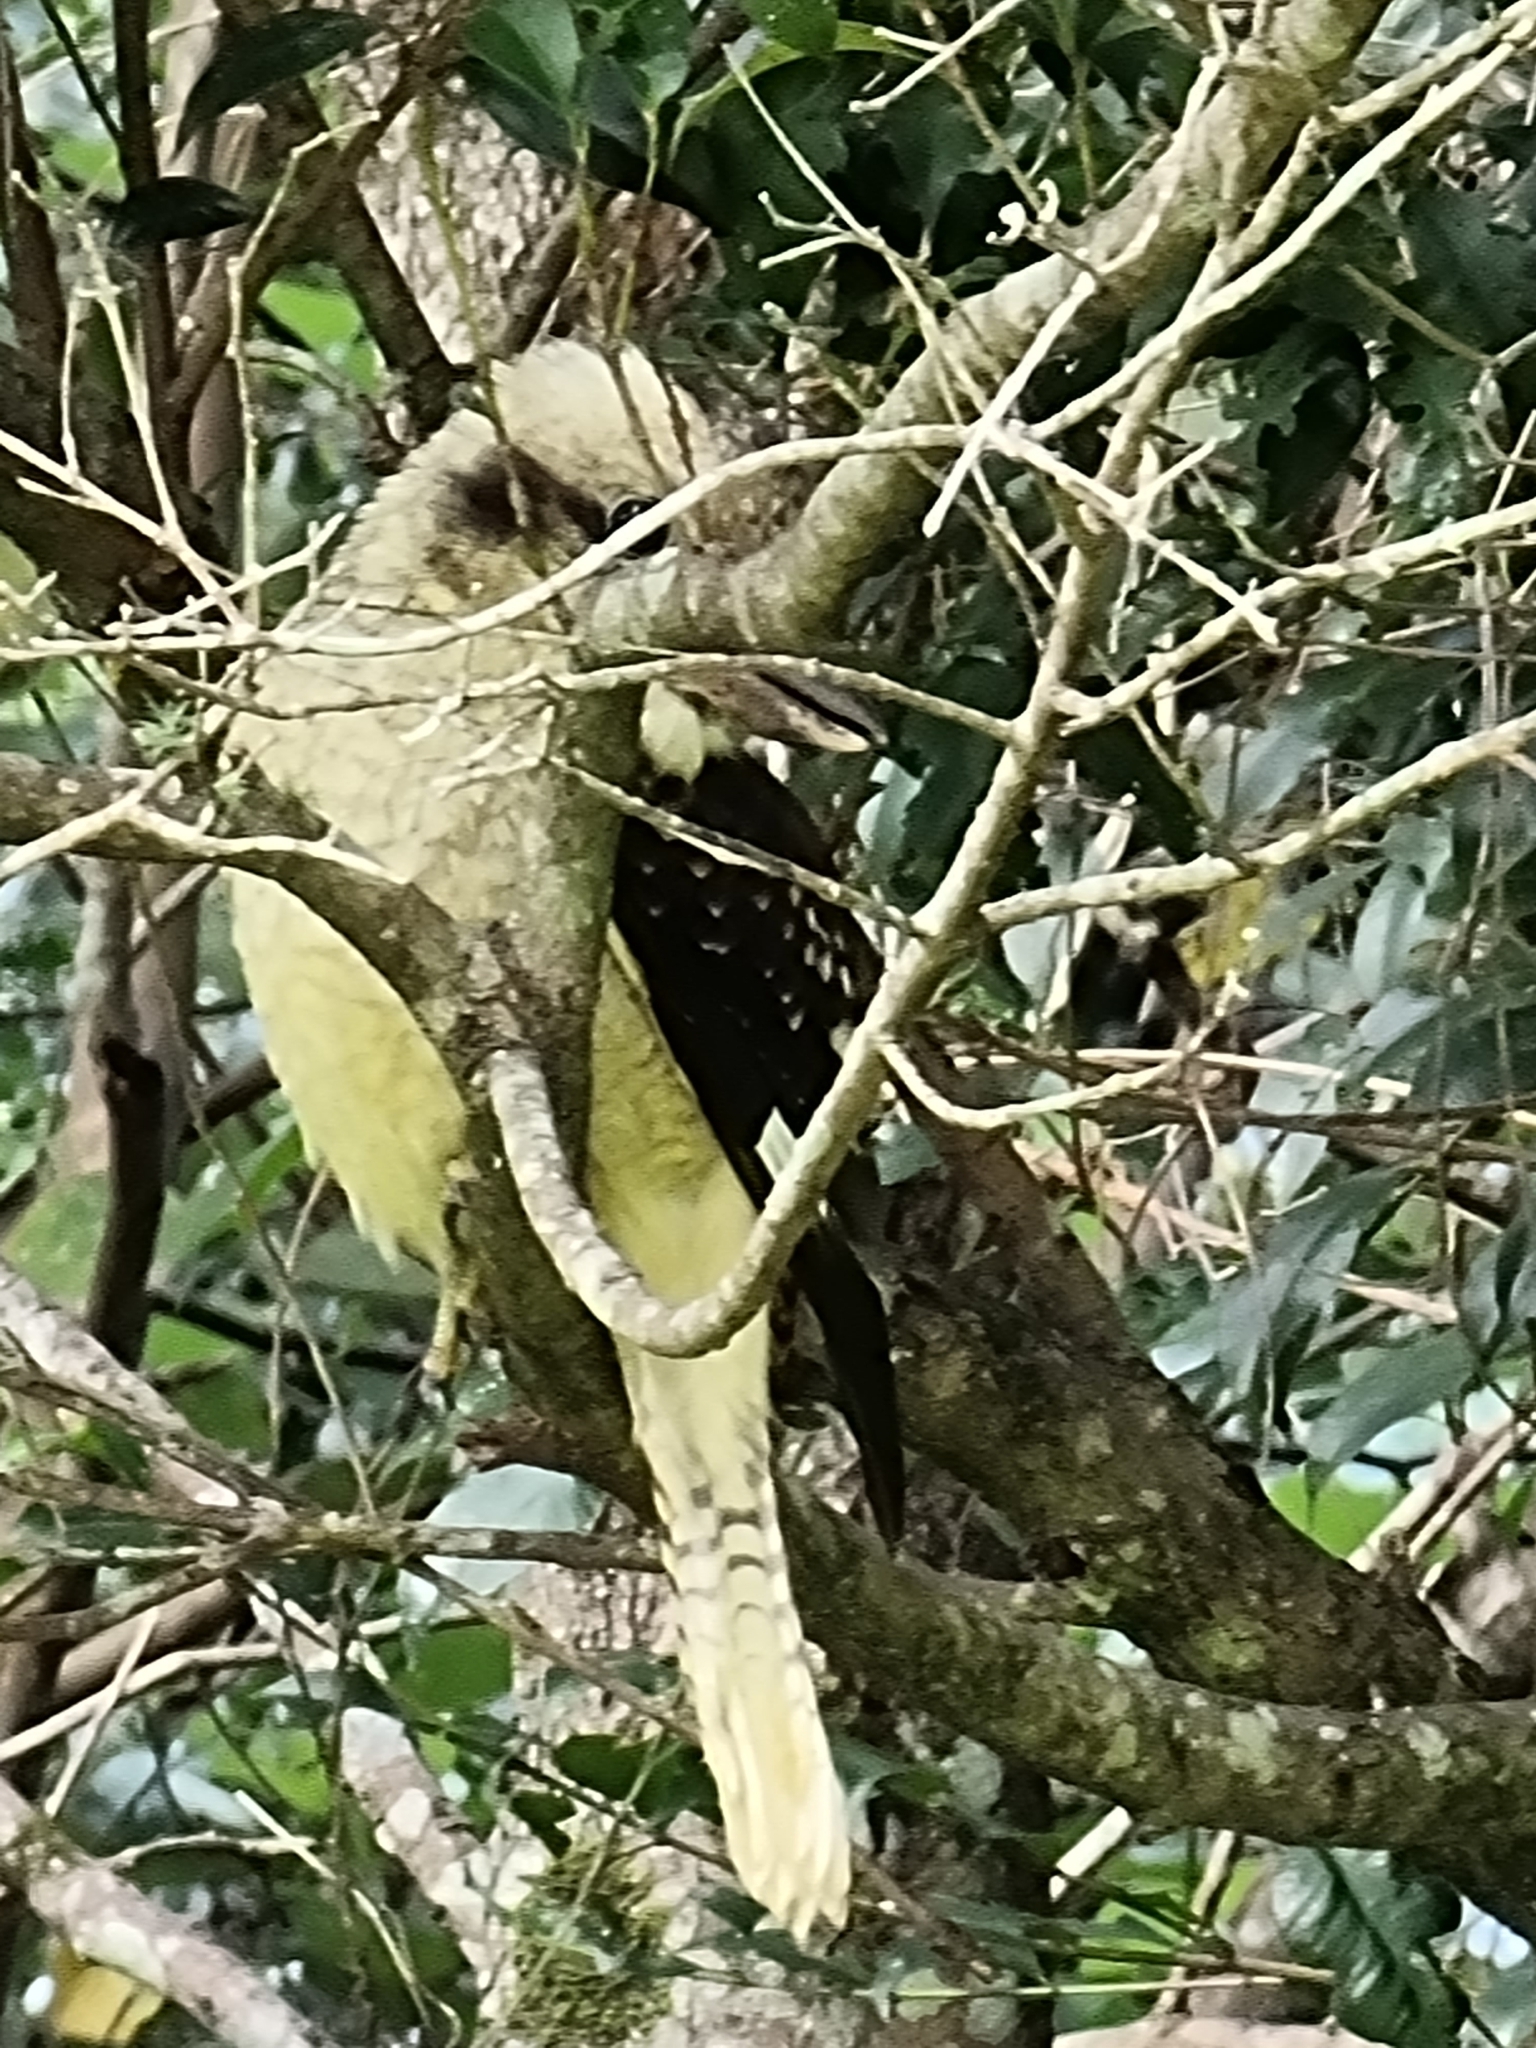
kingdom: Animalia
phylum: Chordata
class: Aves
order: Coraciiformes
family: Alcedinidae
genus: Dacelo
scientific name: Dacelo novaeguineae
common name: Laughing kookaburra
